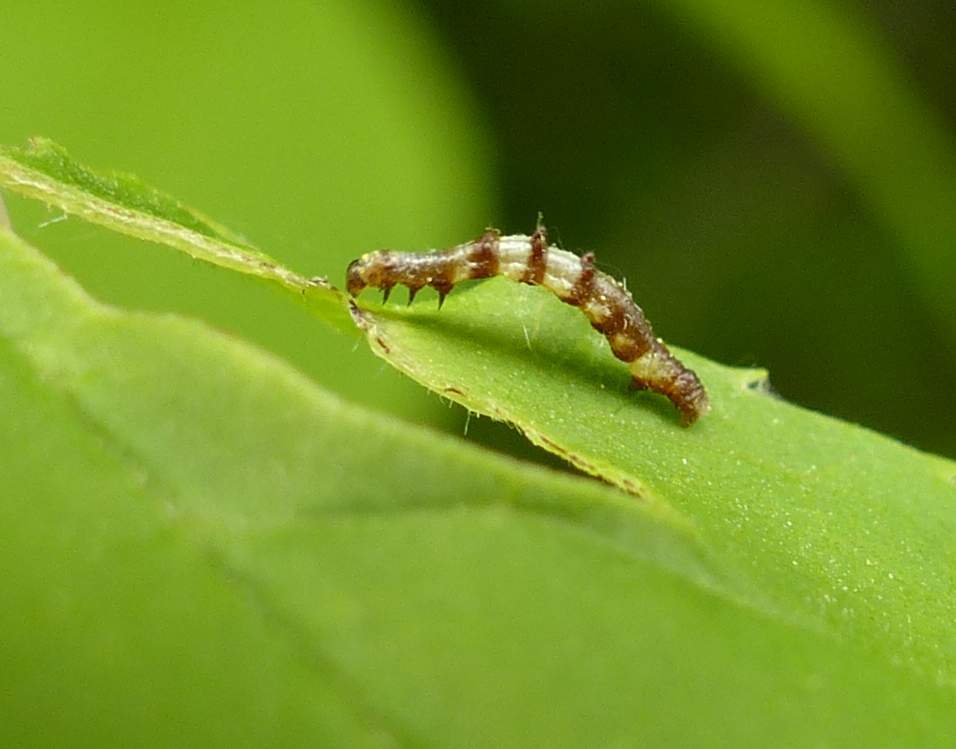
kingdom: Animalia
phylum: Arthropoda
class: Insecta
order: Lepidoptera
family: Geometridae
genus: Nematocampa
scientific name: Nematocampa resistaria
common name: Horned spanworm moth
